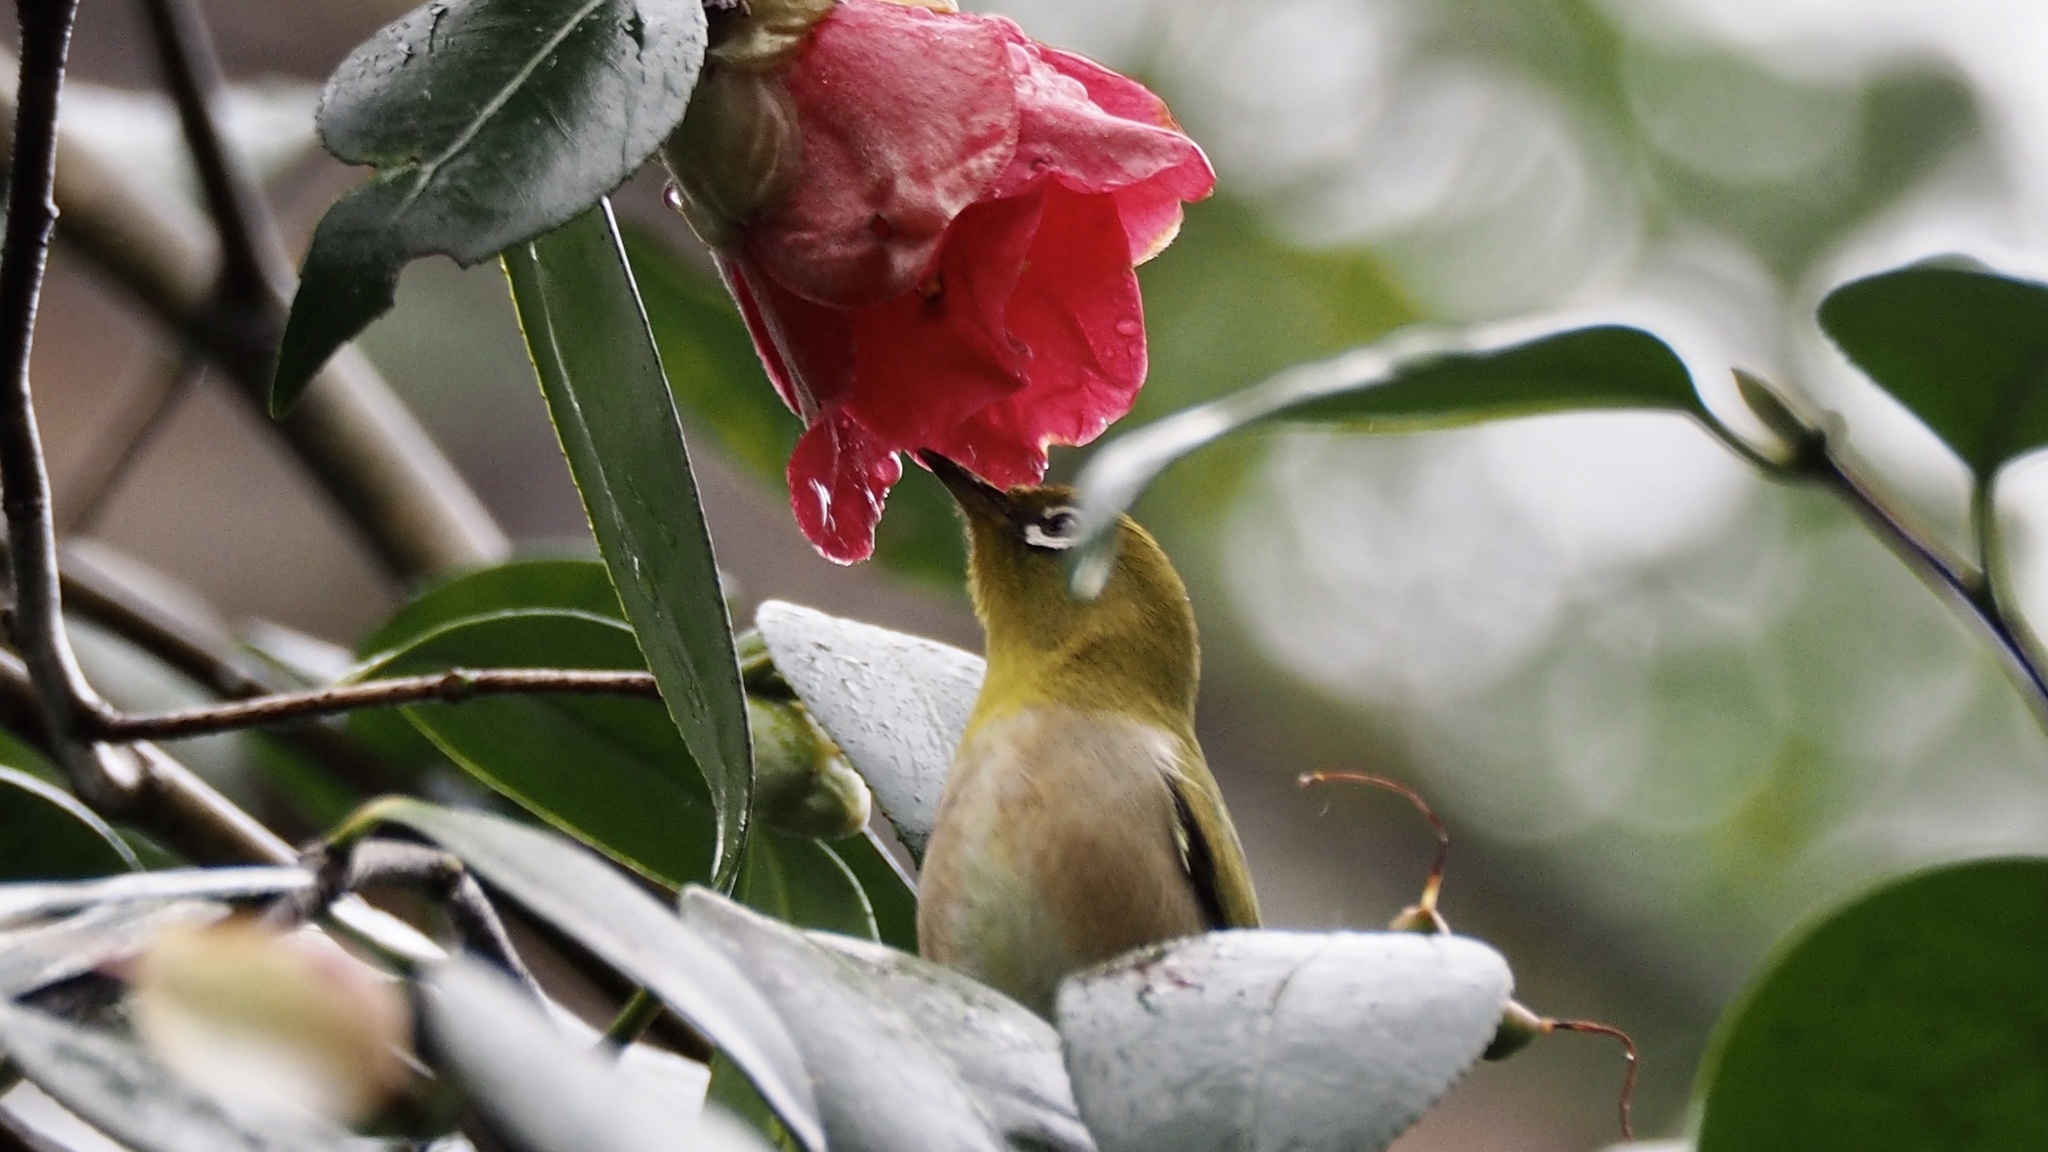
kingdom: Animalia
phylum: Chordata
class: Aves
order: Passeriformes
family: Zosteropidae
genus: Zosterops
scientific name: Zosterops japonicus
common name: Japanese white-eye
